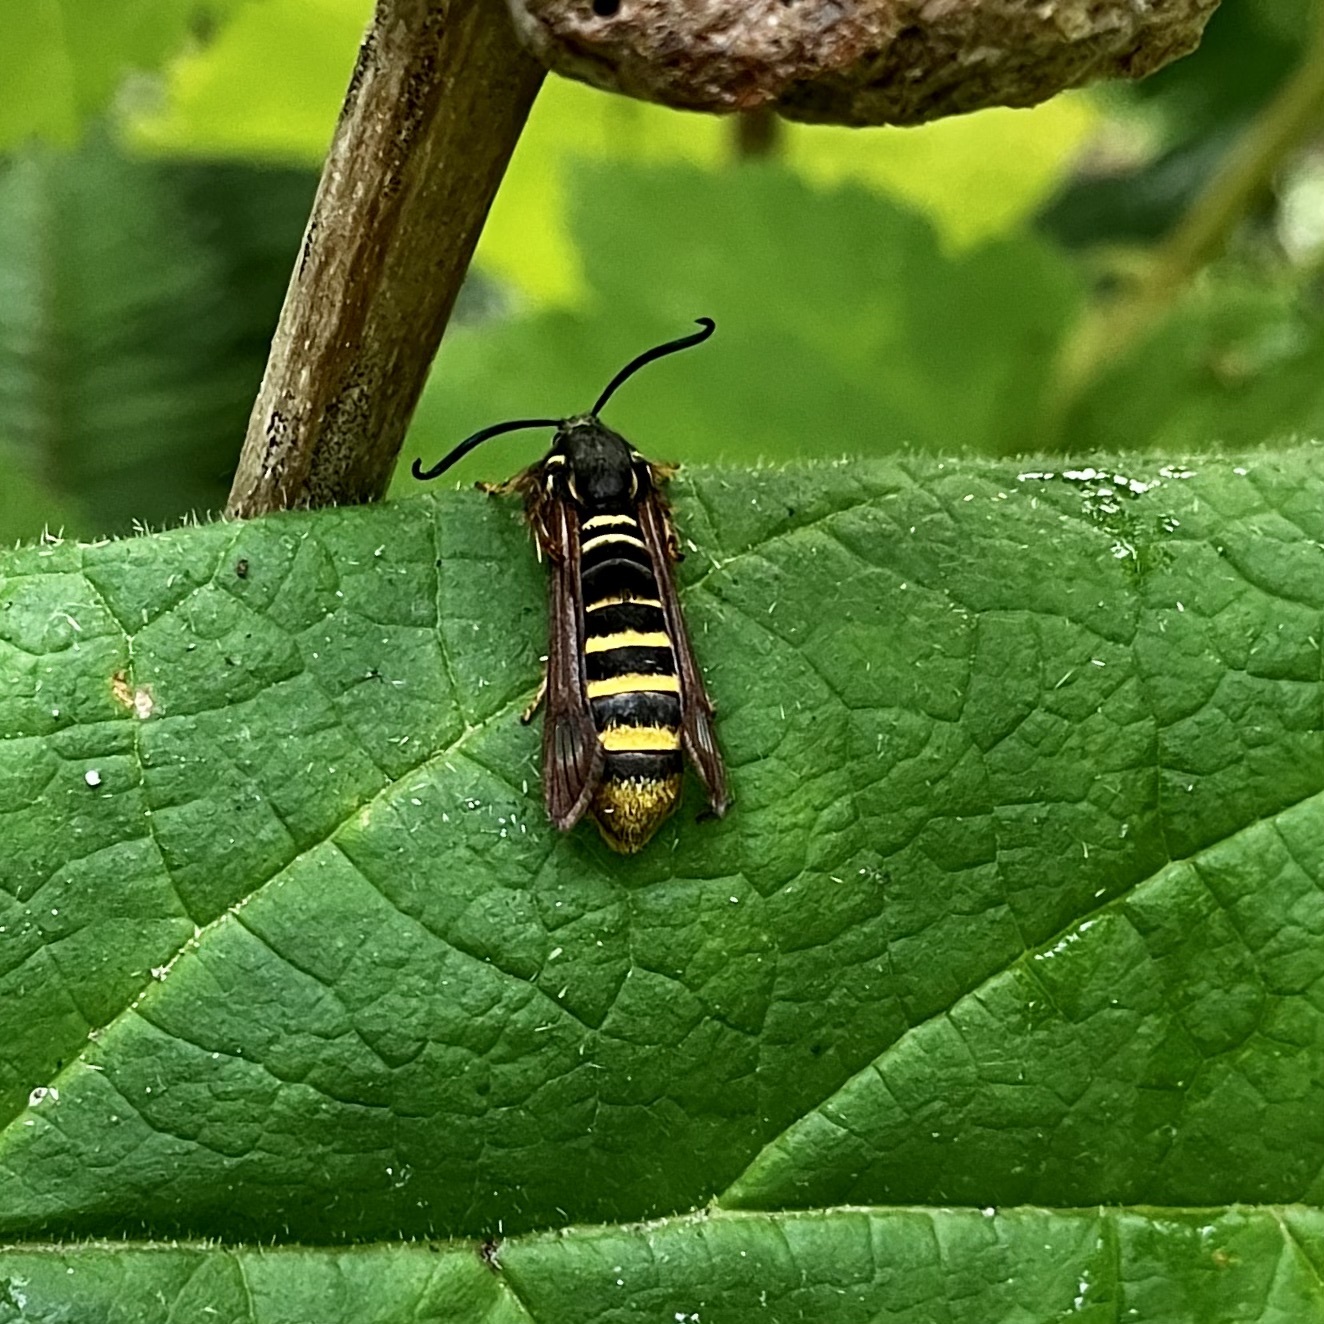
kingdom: Animalia
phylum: Arthropoda
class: Insecta
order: Lepidoptera
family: Sesiidae
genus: Pennisetia
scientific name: Pennisetia marginatum
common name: Raspberry crown borer
